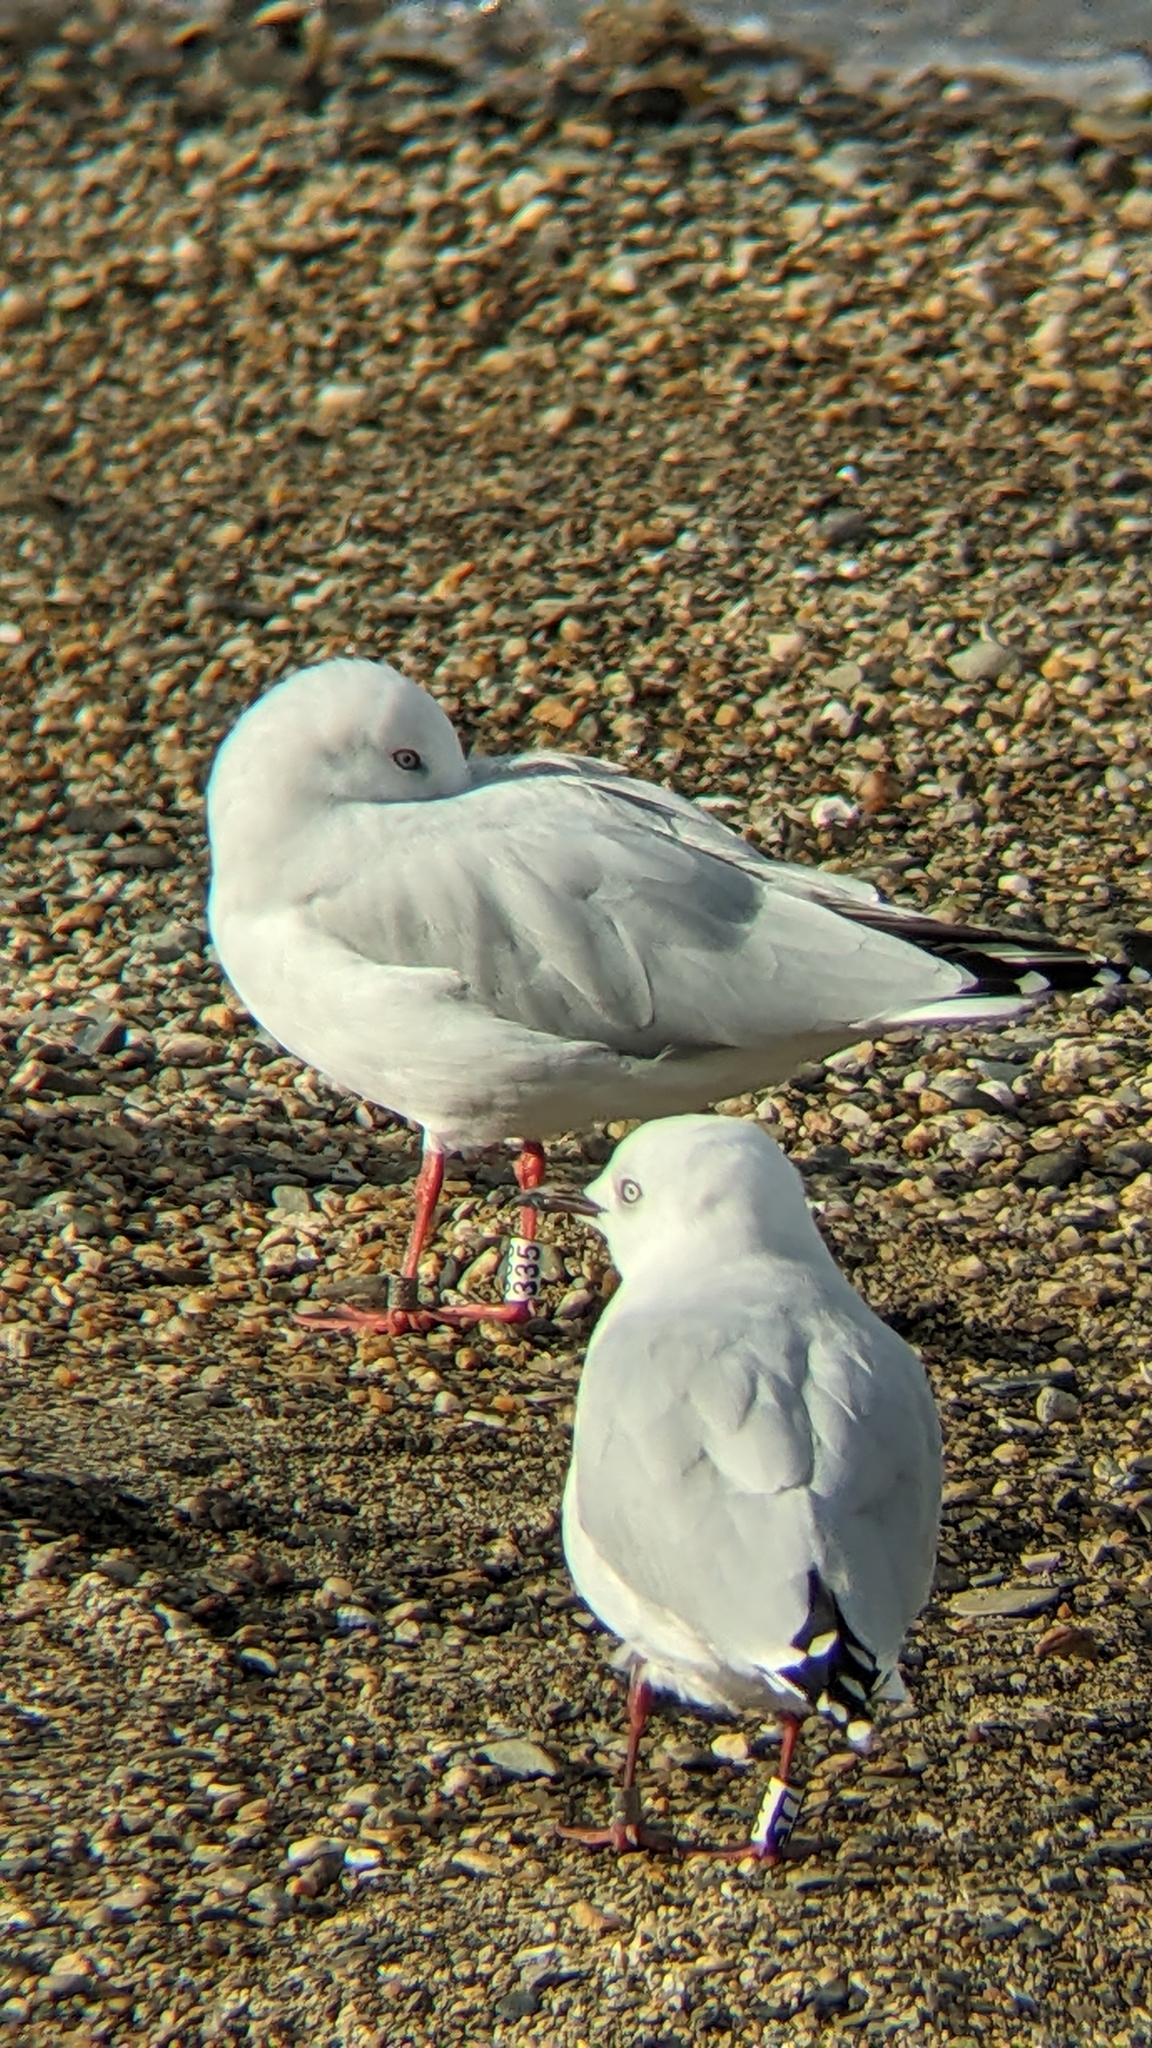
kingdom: Animalia
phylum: Chordata
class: Aves
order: Charadriiformes
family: Laridae
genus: Chroicocephalus
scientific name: Chroicocephalus bulleri
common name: Black-billed gull
